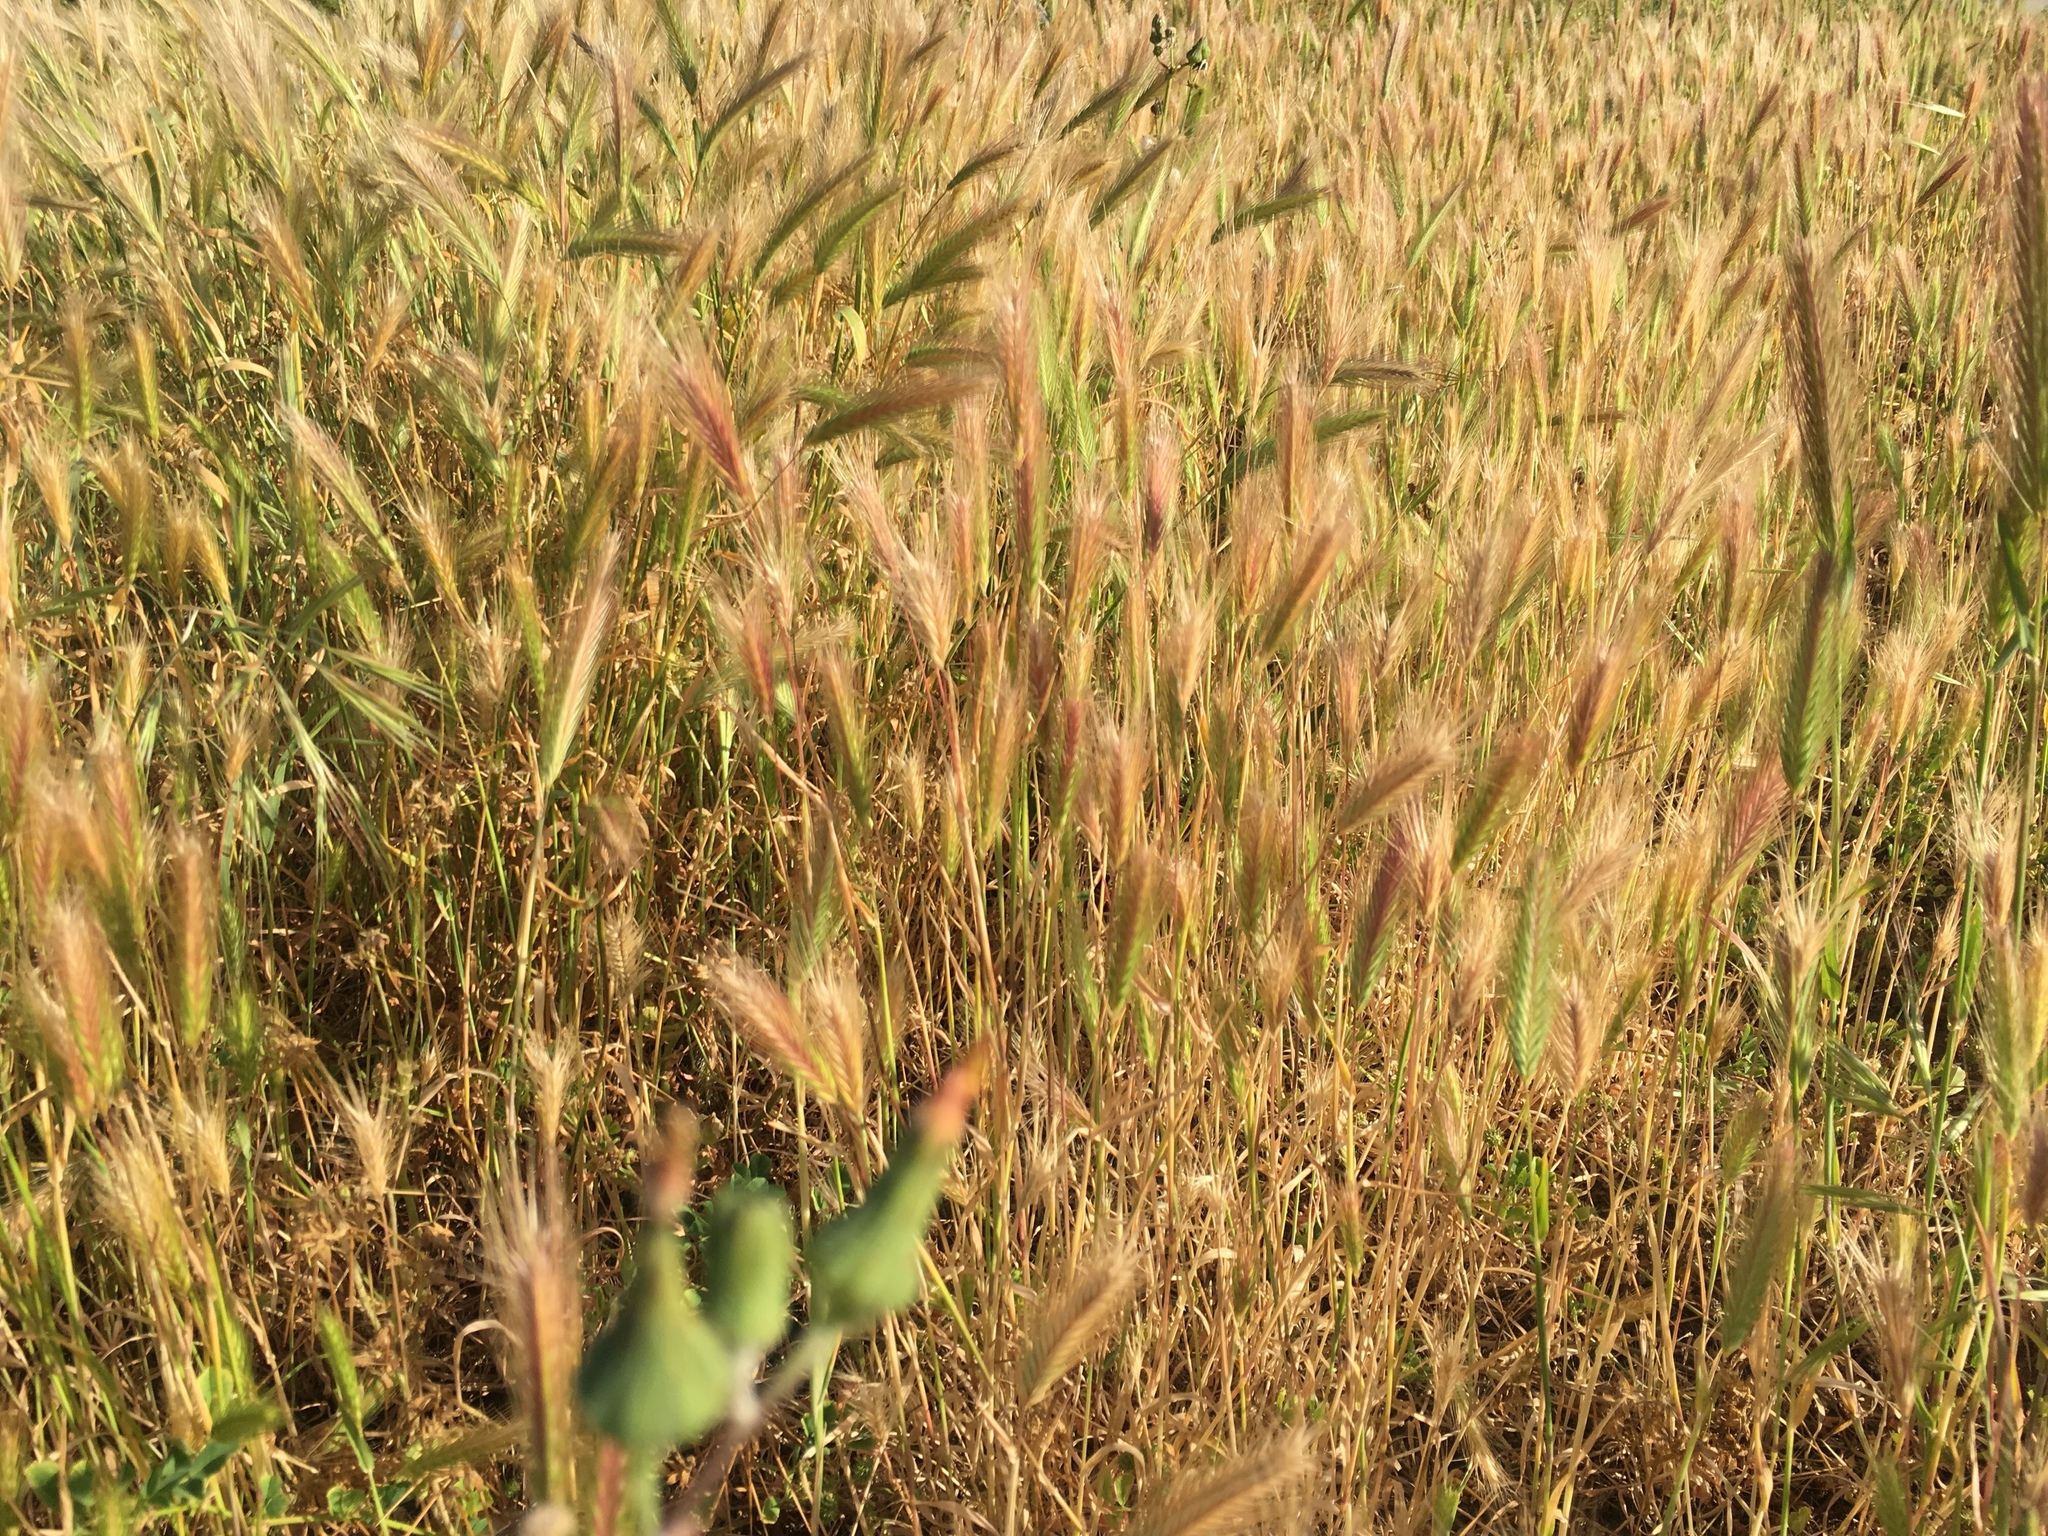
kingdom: Plantae
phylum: Tracheophyta
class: Liliopsida
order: Poales
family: Poaceae
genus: Hordeum
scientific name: Hordeum murinum
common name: Wall barley
